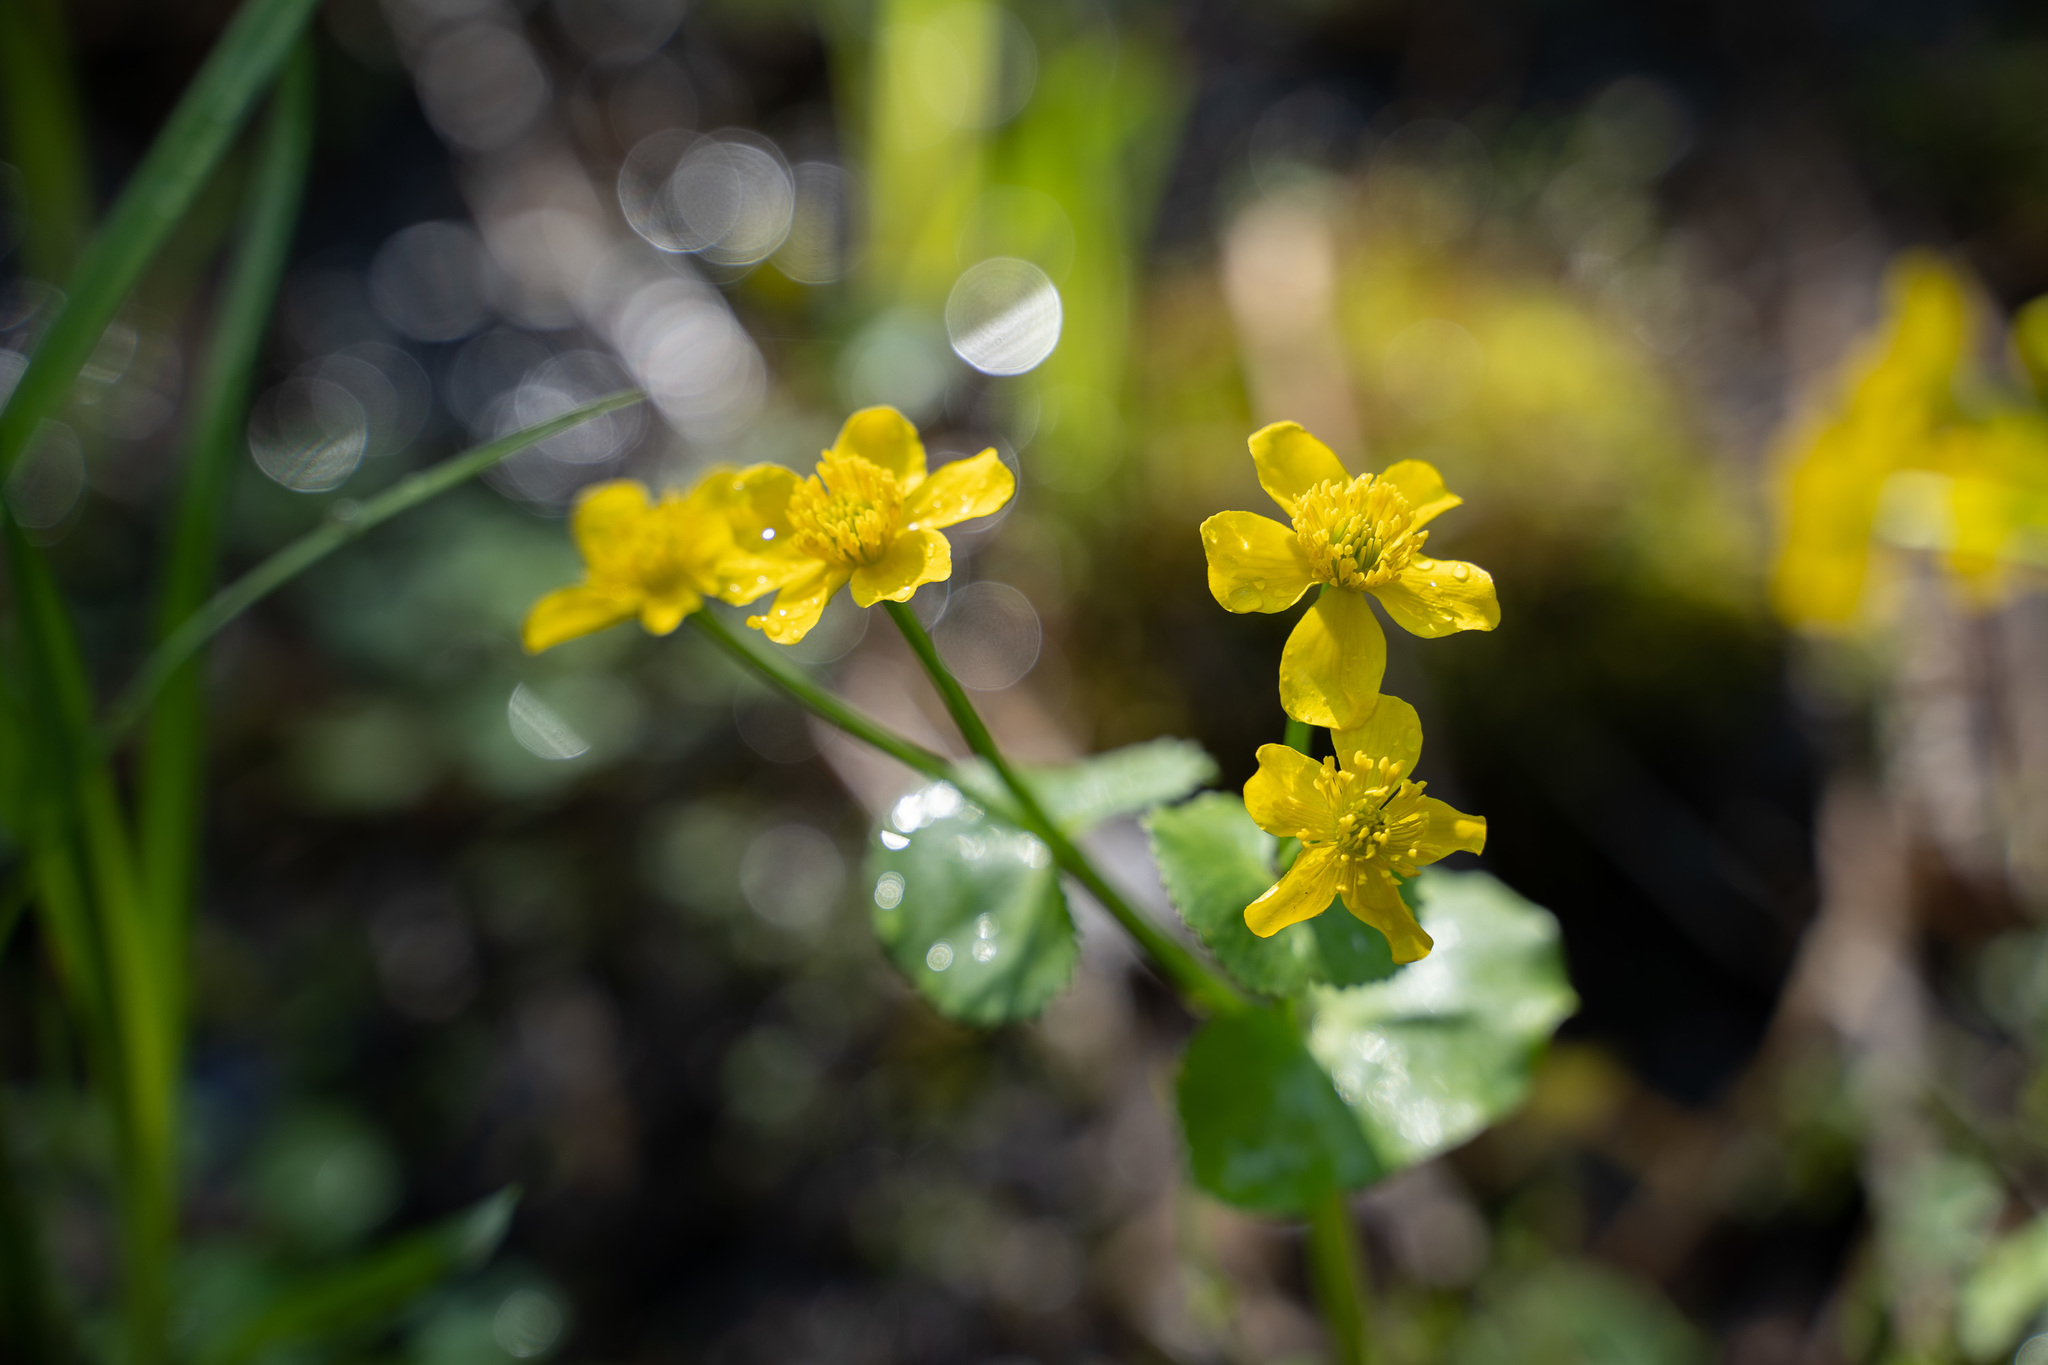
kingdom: Plantae
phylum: Tracheophyta
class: Magnoliopsida
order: Ranunculales
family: Ranunculaceae
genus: Caltha
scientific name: Caltha palustris
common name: Marsh marigold
